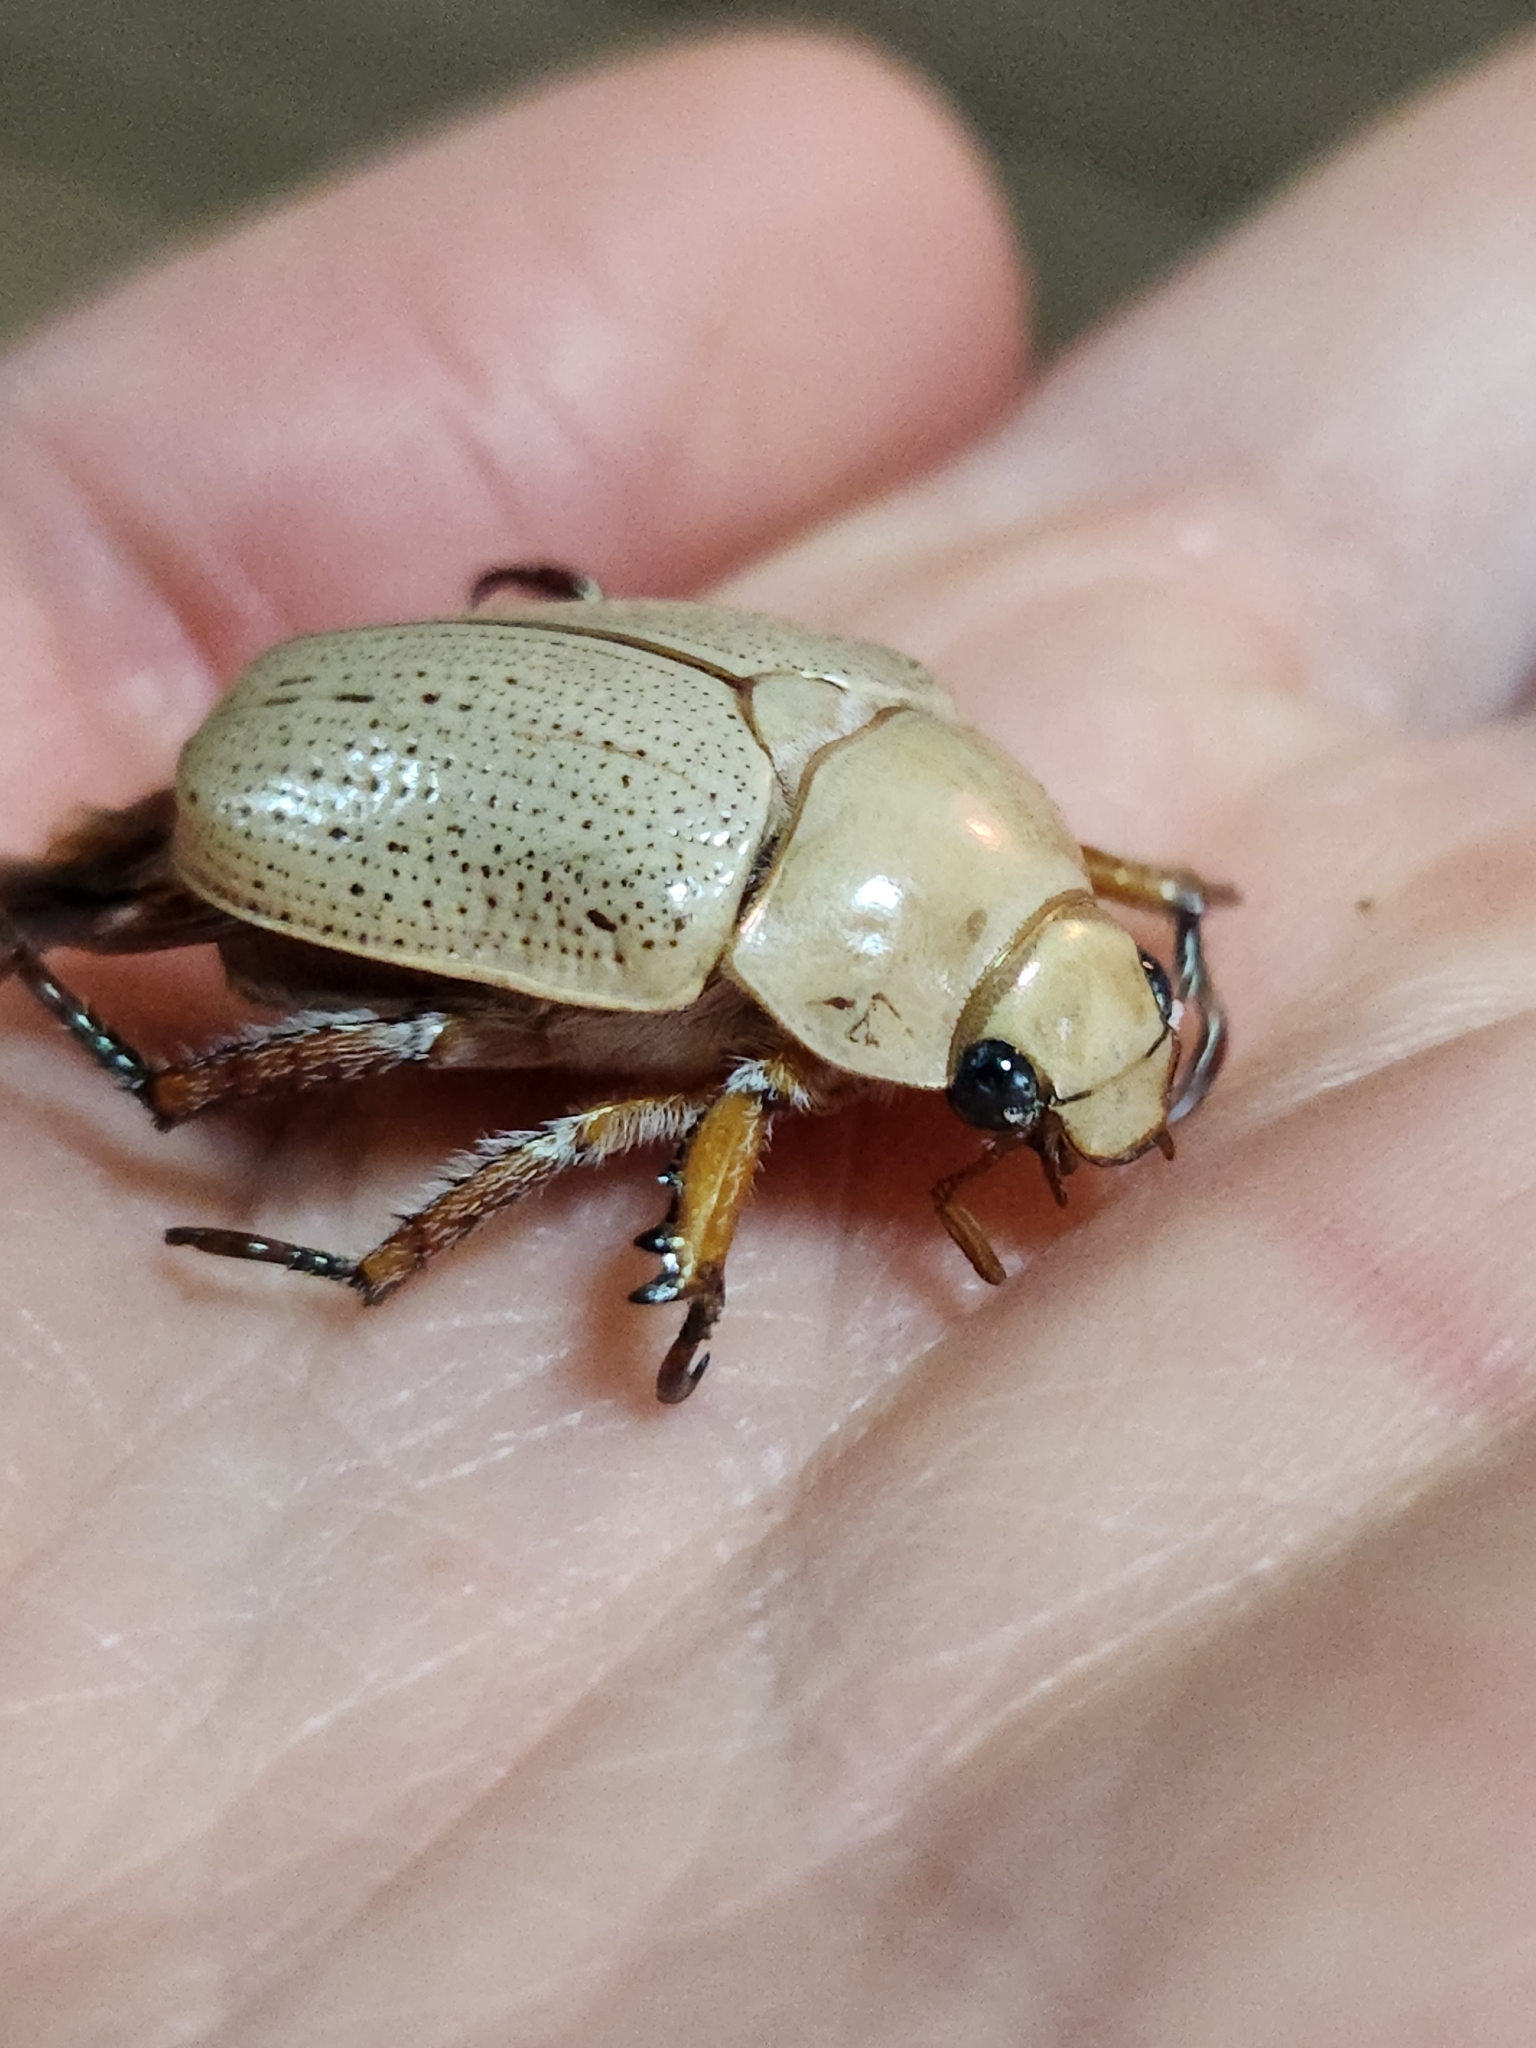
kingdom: Animalia
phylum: Arthropoda
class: Insecta
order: Coleoptera
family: Scarabaeidae
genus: Anoplognathus
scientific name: Anoplognathus pallidicollis
